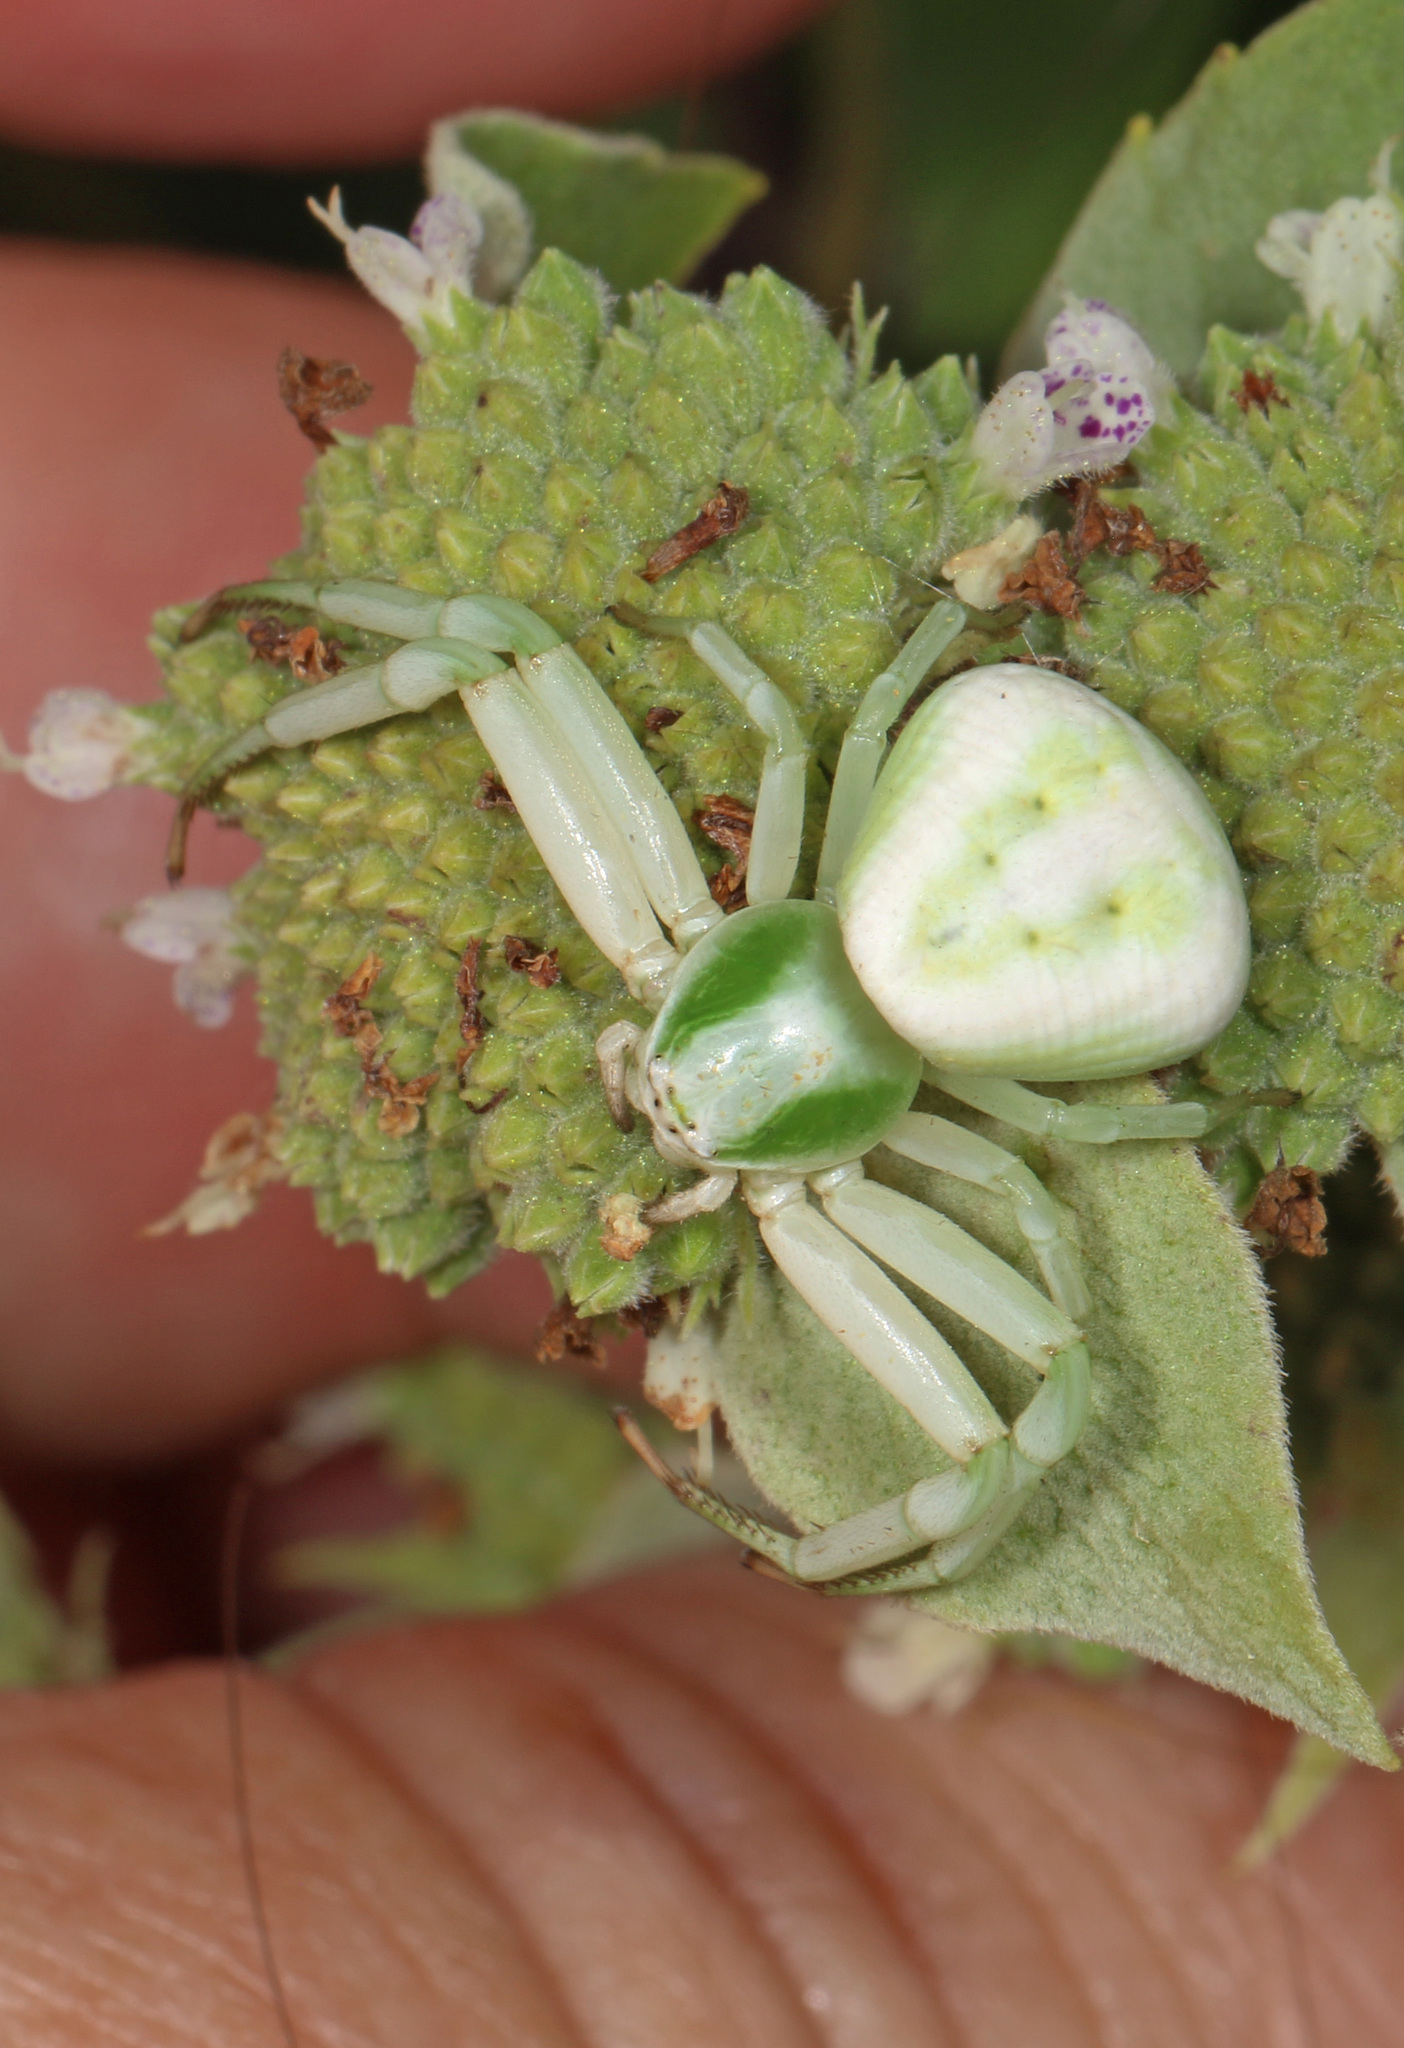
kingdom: Animalia
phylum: Arthropoda
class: Arachnida
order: Araneae
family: Thomisidae
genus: Misumenoides
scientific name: Misumenoides formosipes
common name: White-banded crab spider
